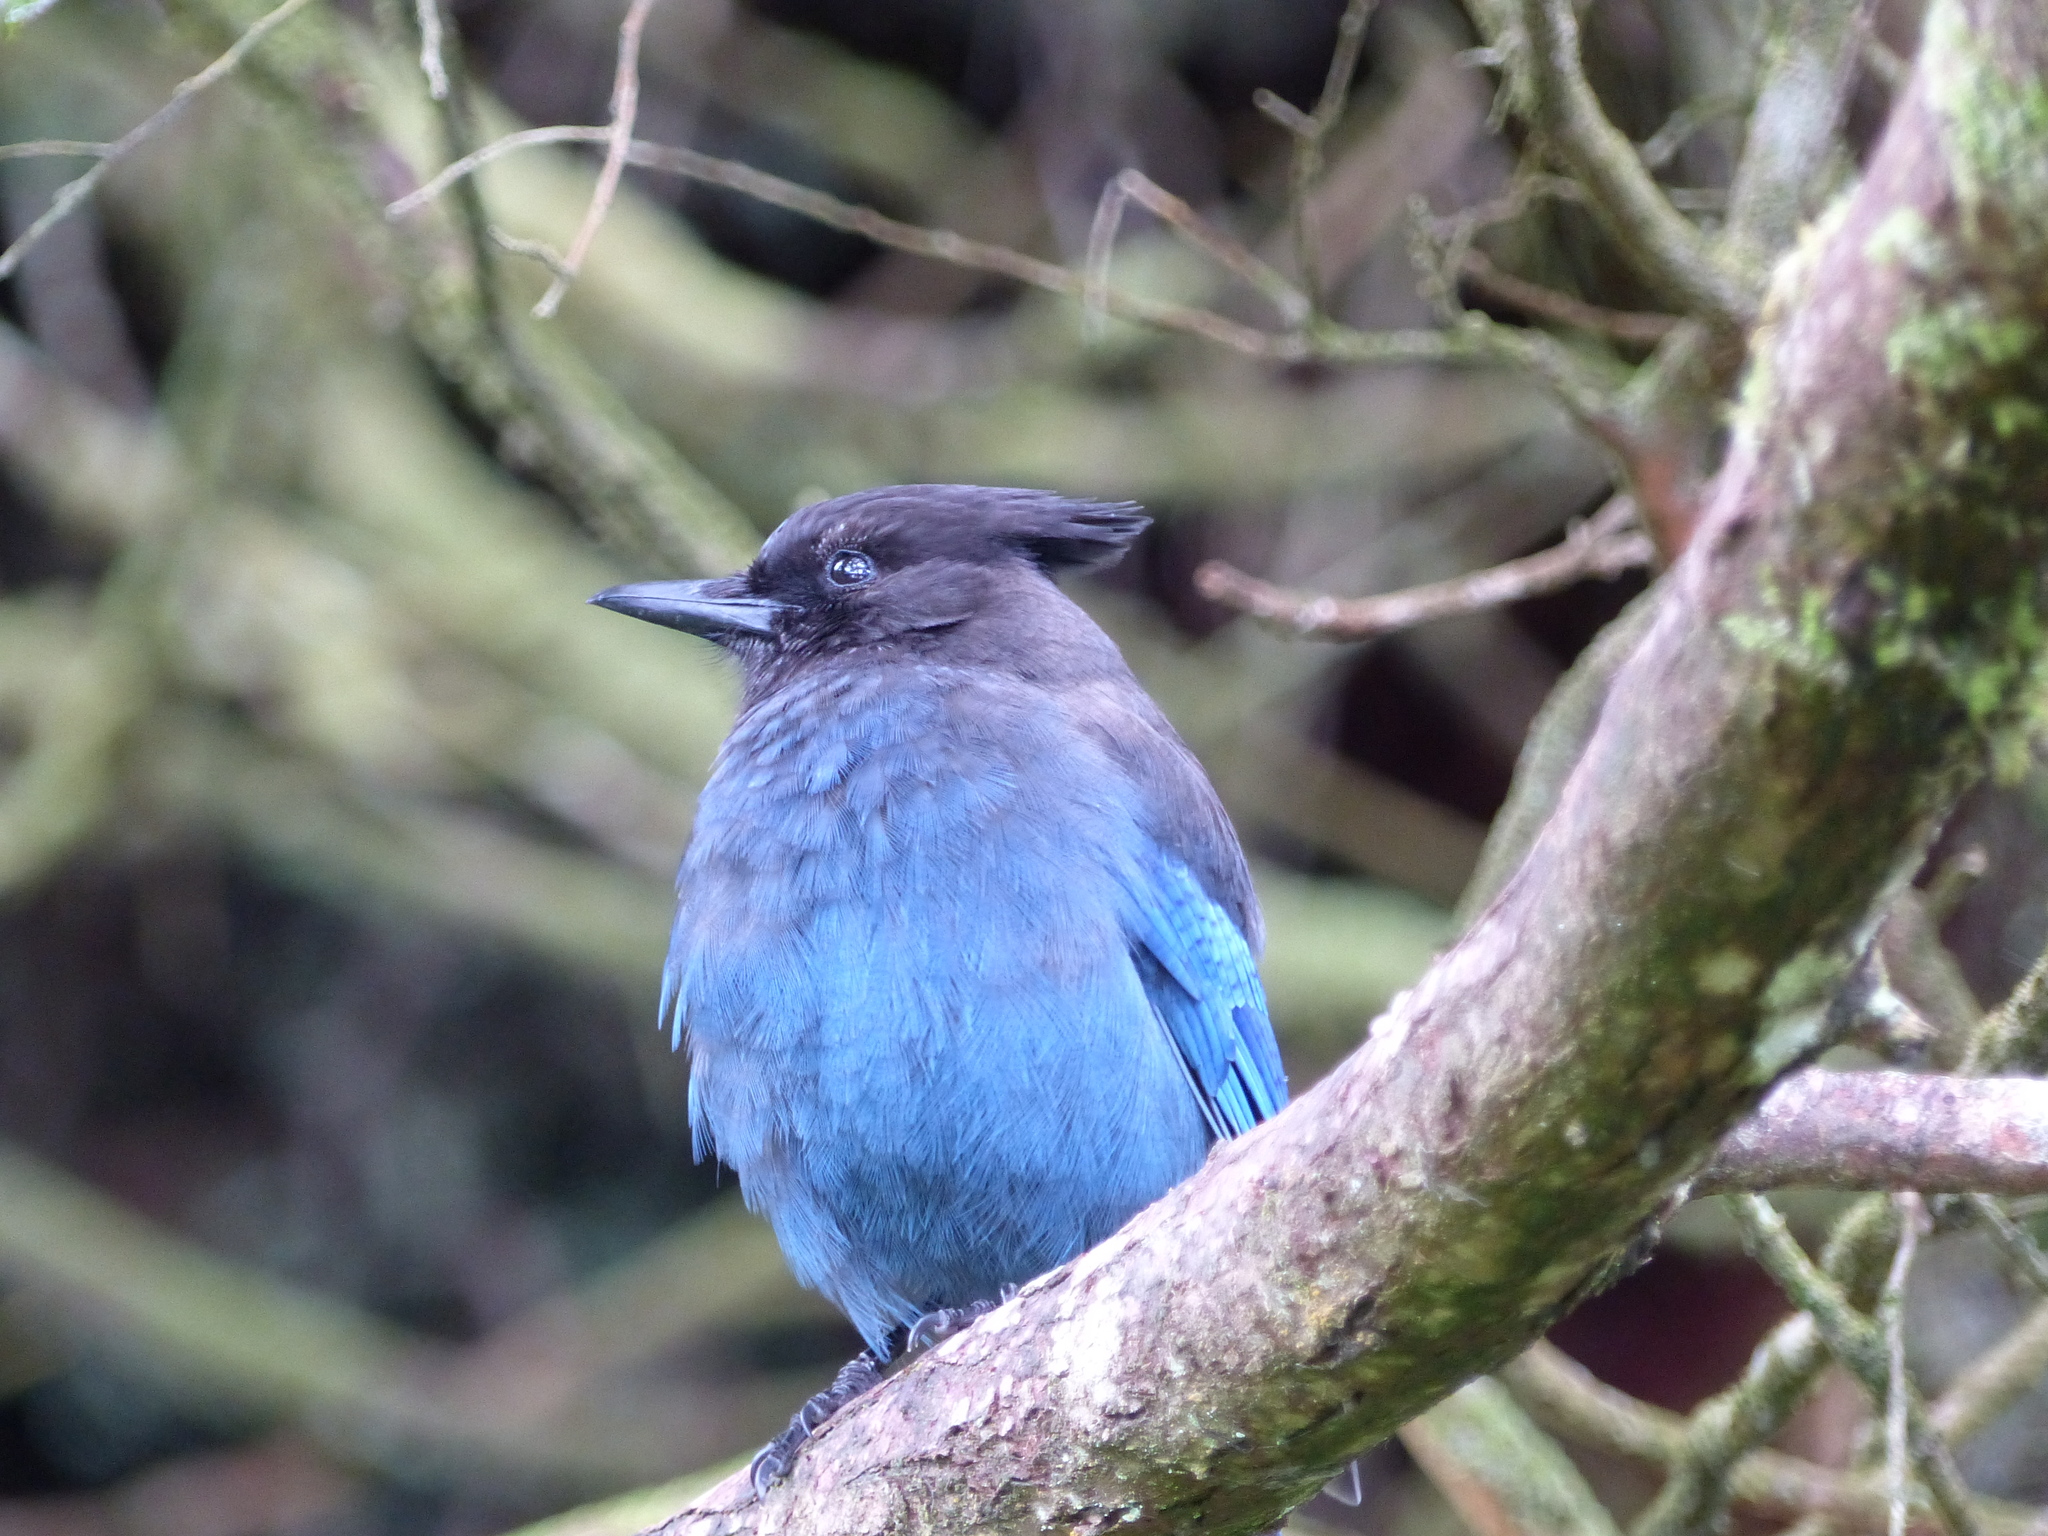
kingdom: Animalia
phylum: Chordata
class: Aves
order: Passeriformes
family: Corvidae
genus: Cyanocitta
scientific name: Cyanocitta stelleri
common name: Steller's jay
